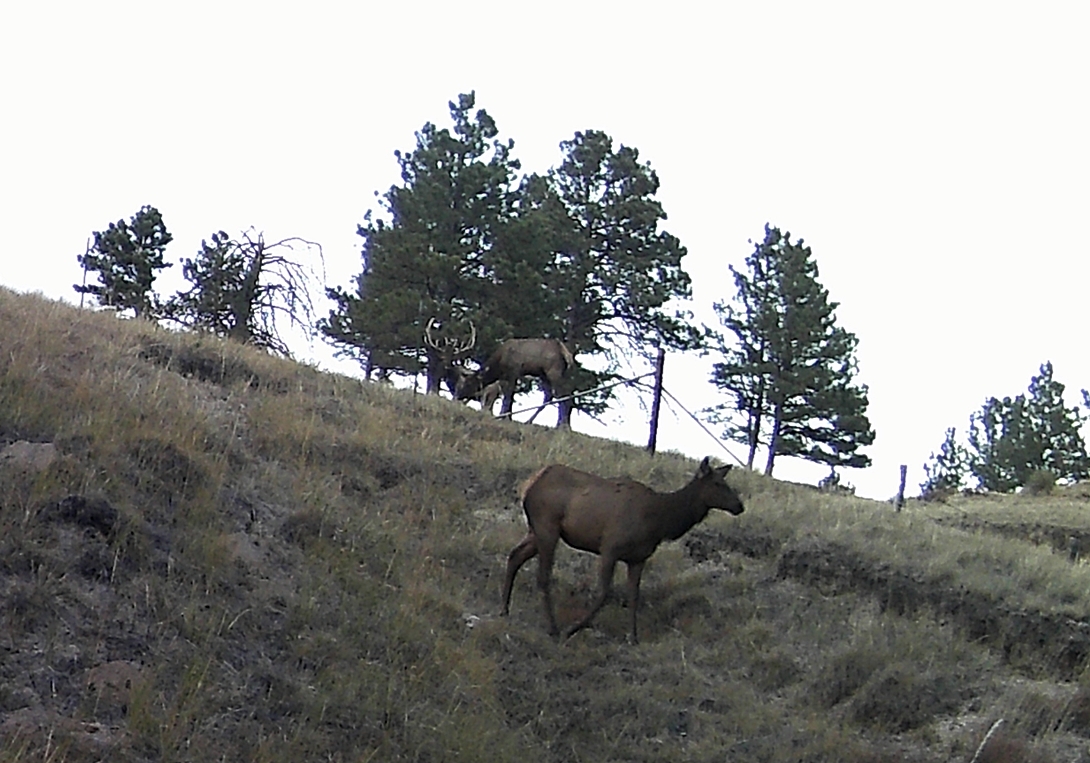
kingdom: Animalia
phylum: Chordata
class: Mammalia
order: Artiodactyla
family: Cervidae
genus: Cervus
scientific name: Cervus elaphus
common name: Red deer
